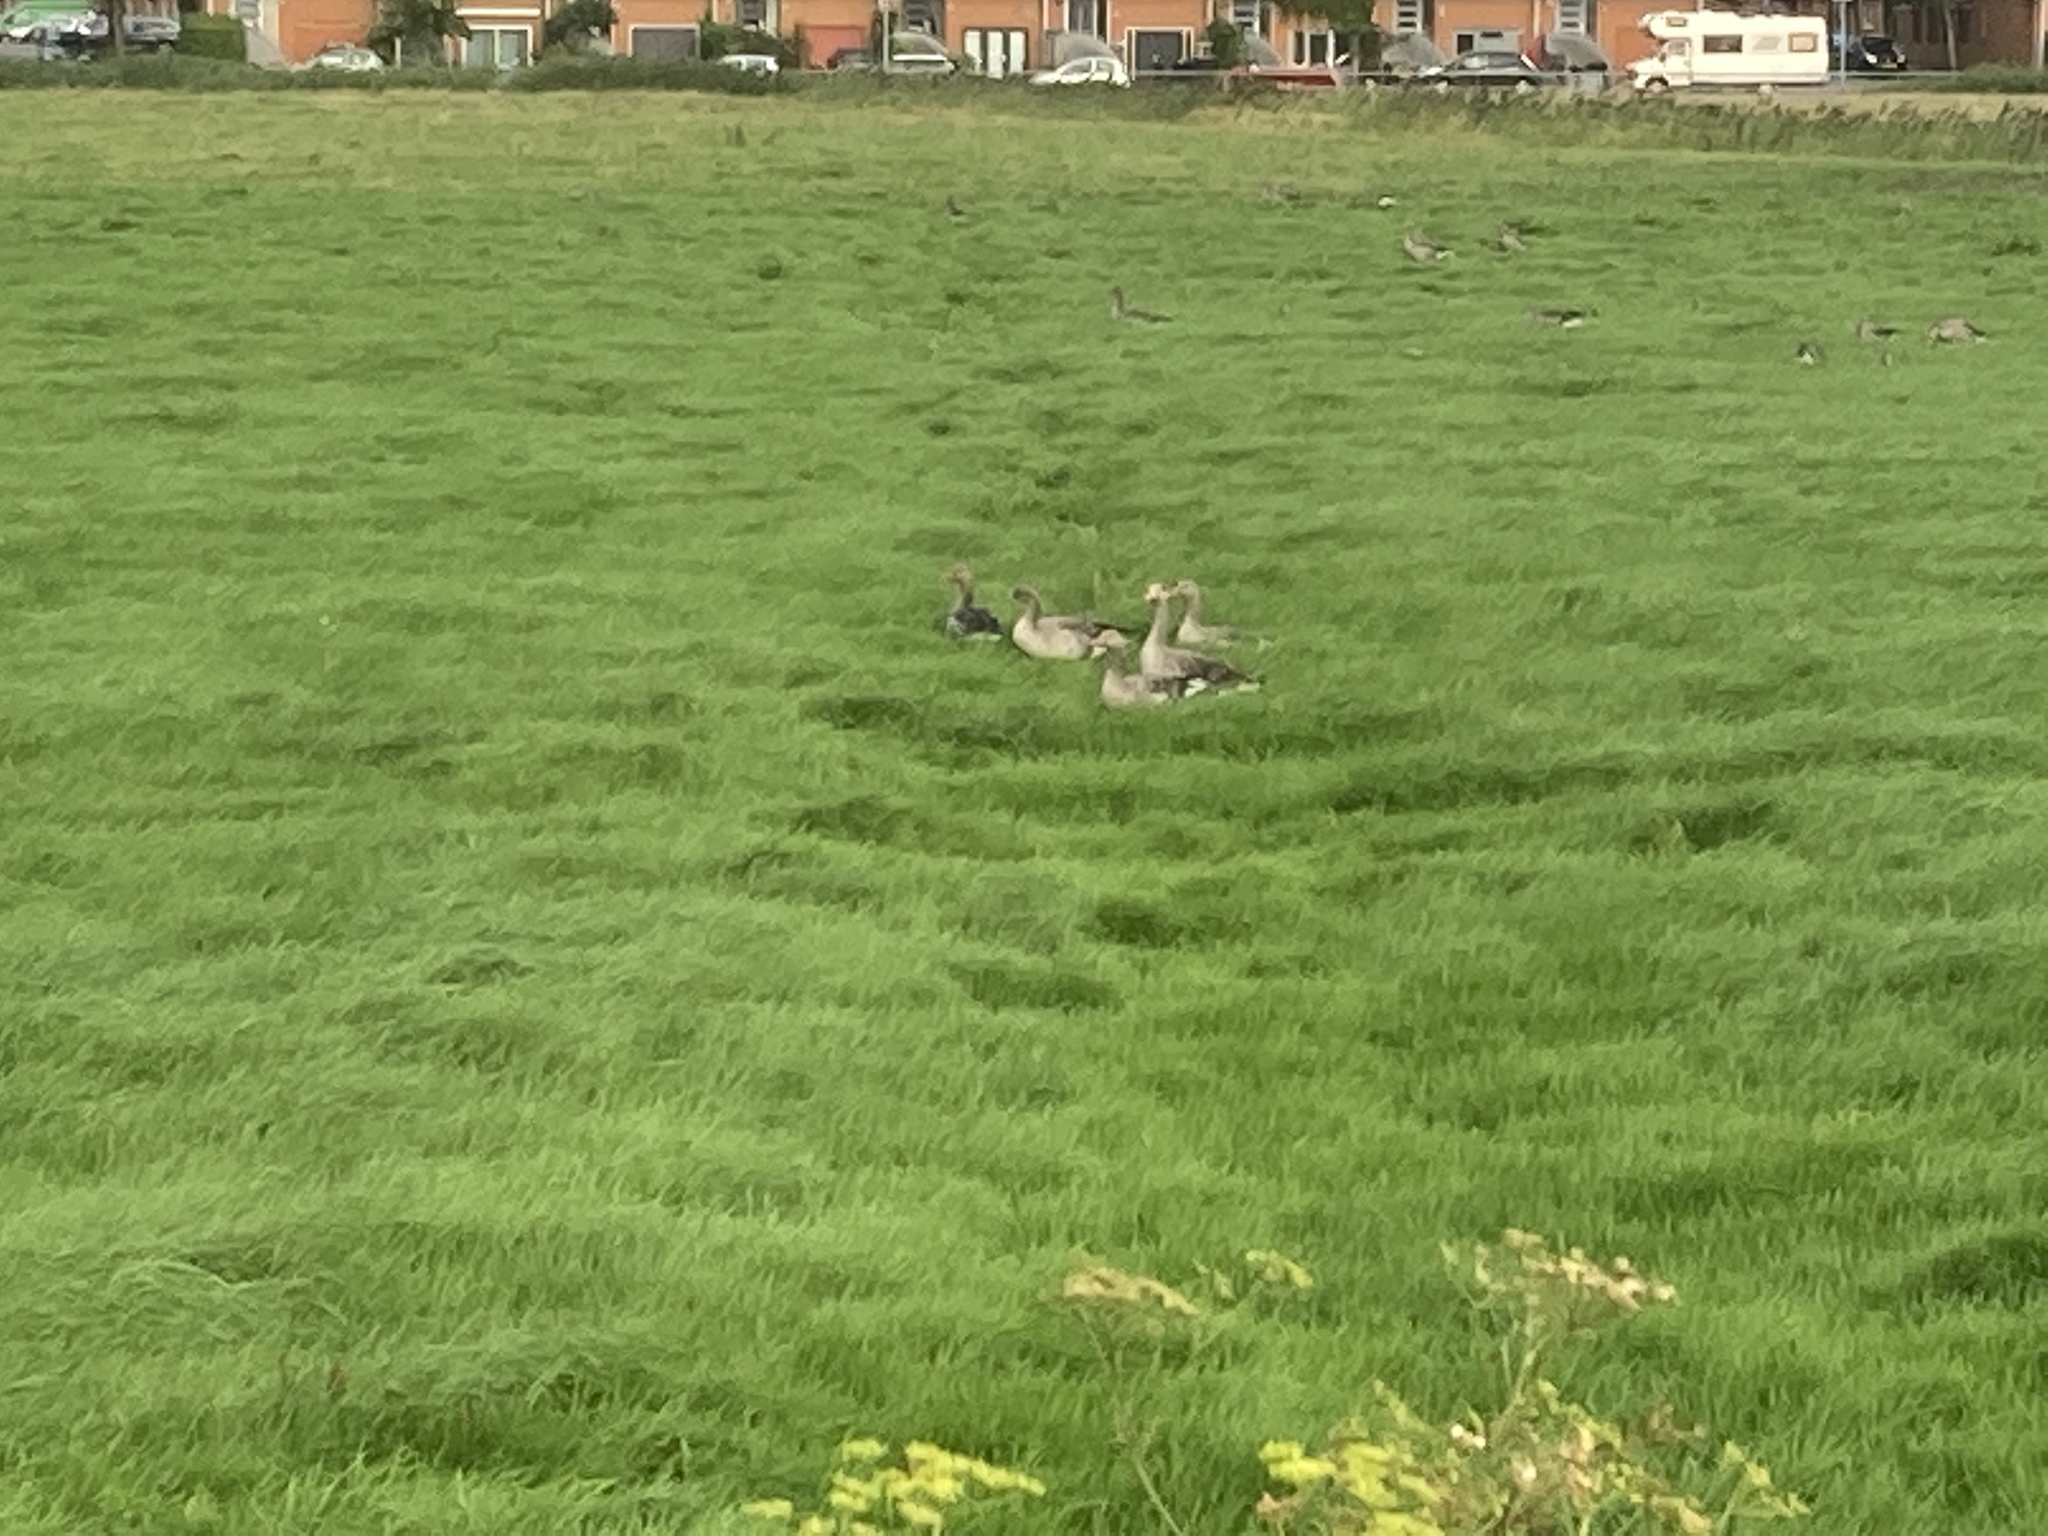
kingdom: Animalia
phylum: Chordata
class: Aves
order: Anseriformes
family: Anatidae
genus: Anser
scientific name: Anser albifrons
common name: Greater white-fronted goose
